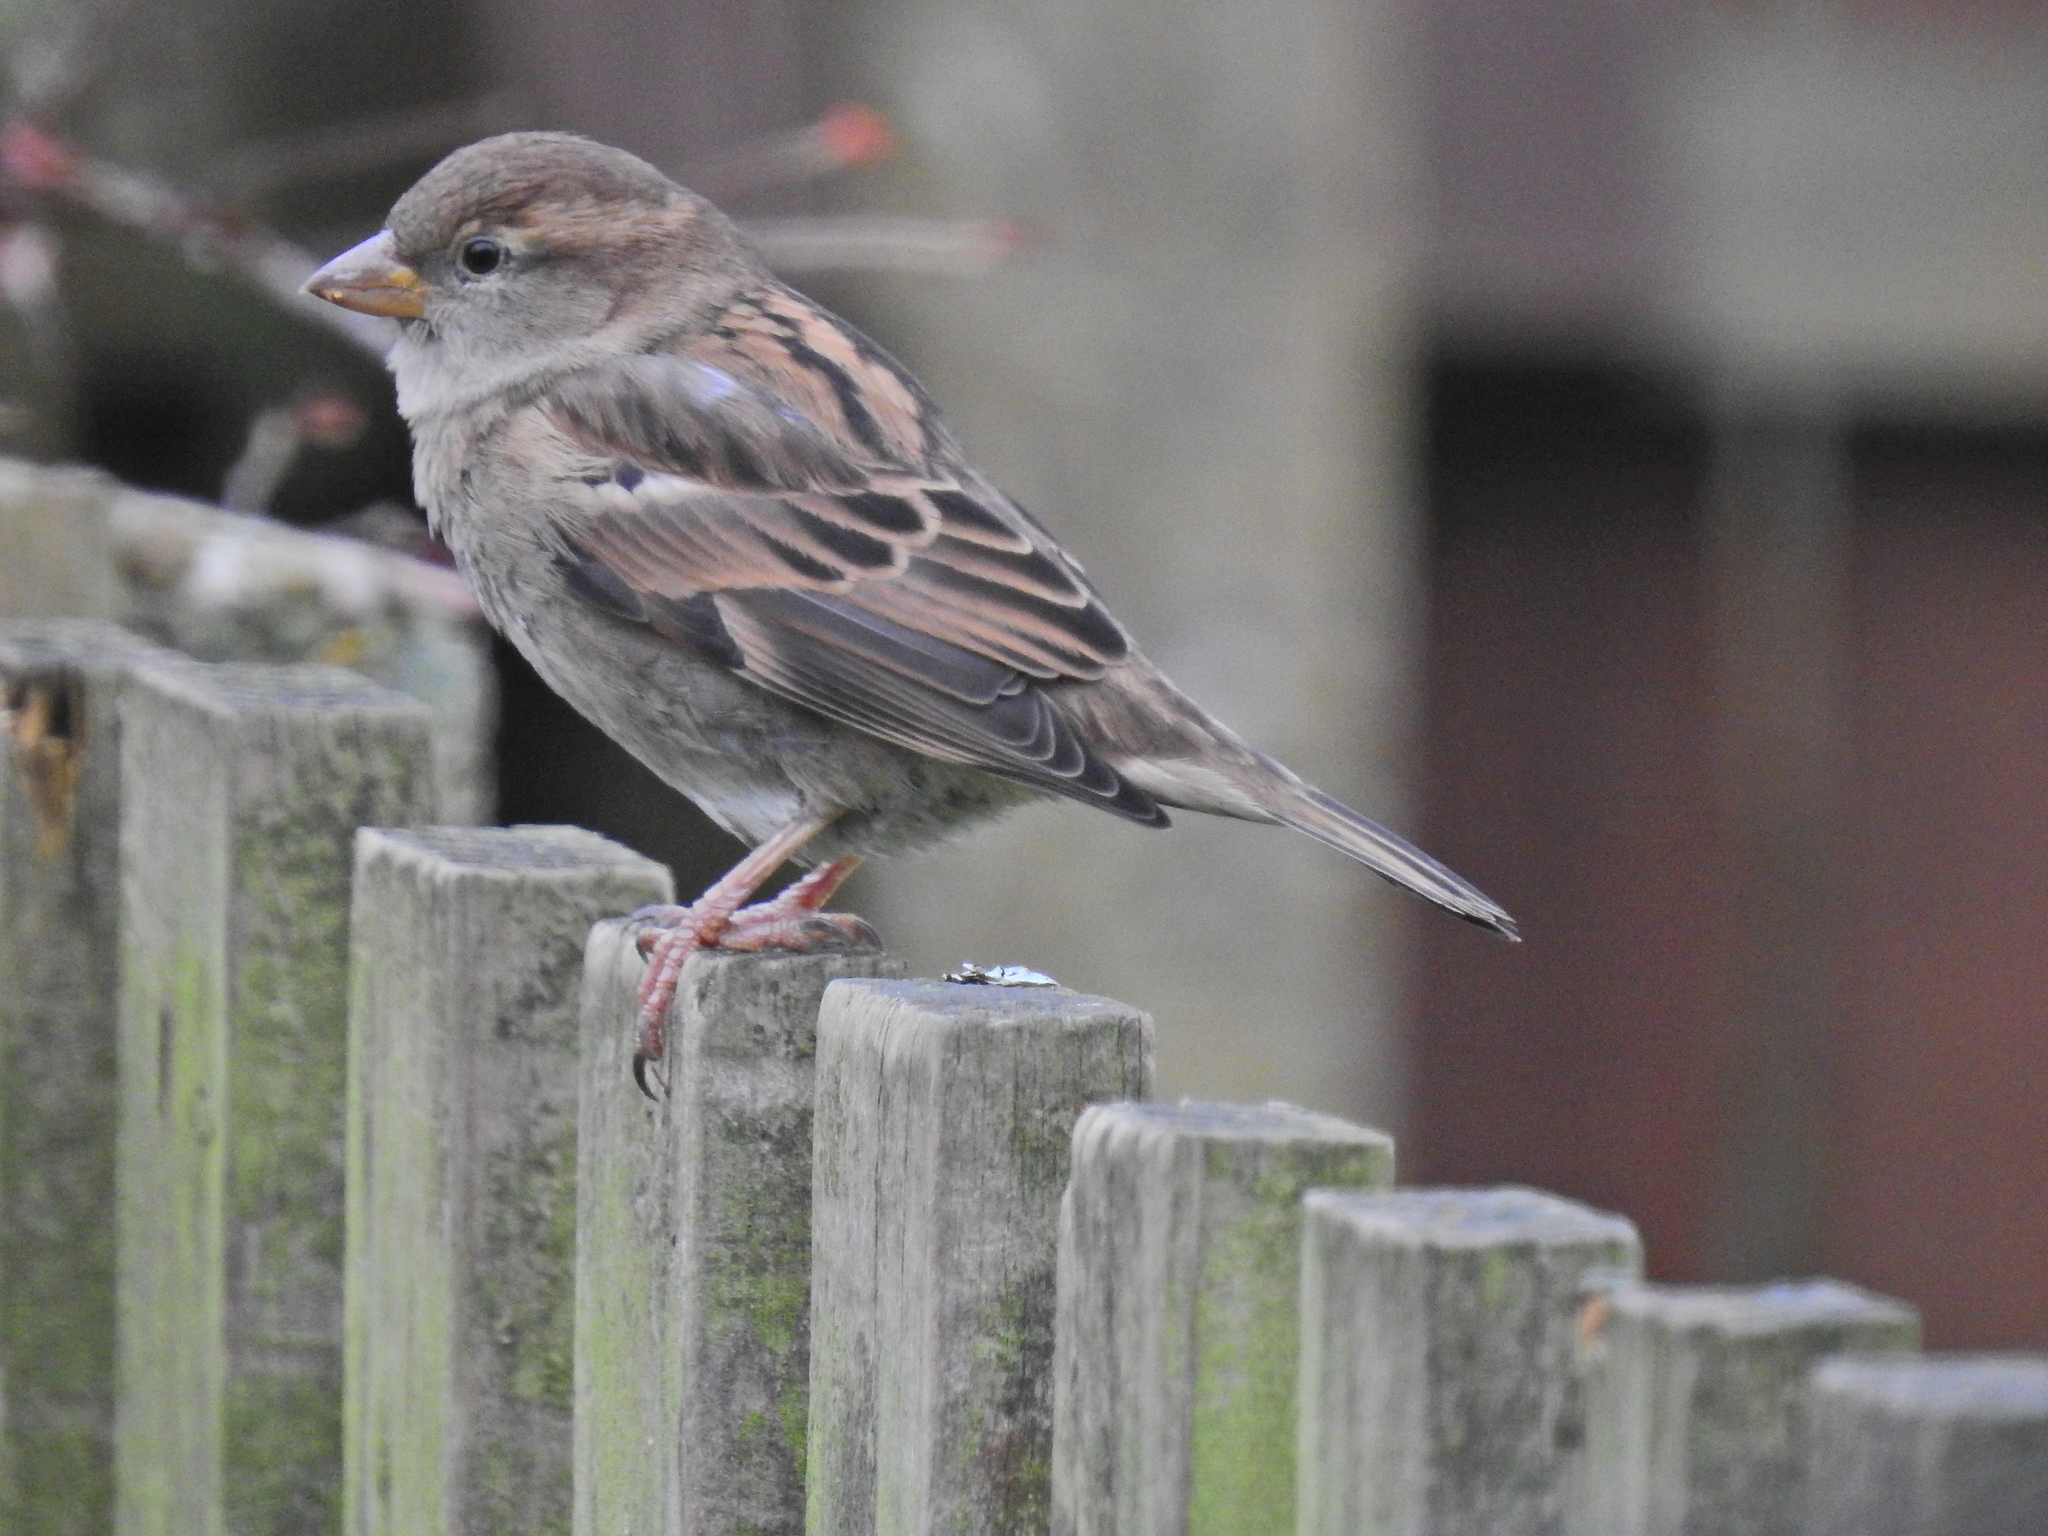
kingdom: Animalia
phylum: Chordata
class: Aves
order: Passeriformes
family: Passeridae
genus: Passer
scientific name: Passer domesticus
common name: House sparrow
